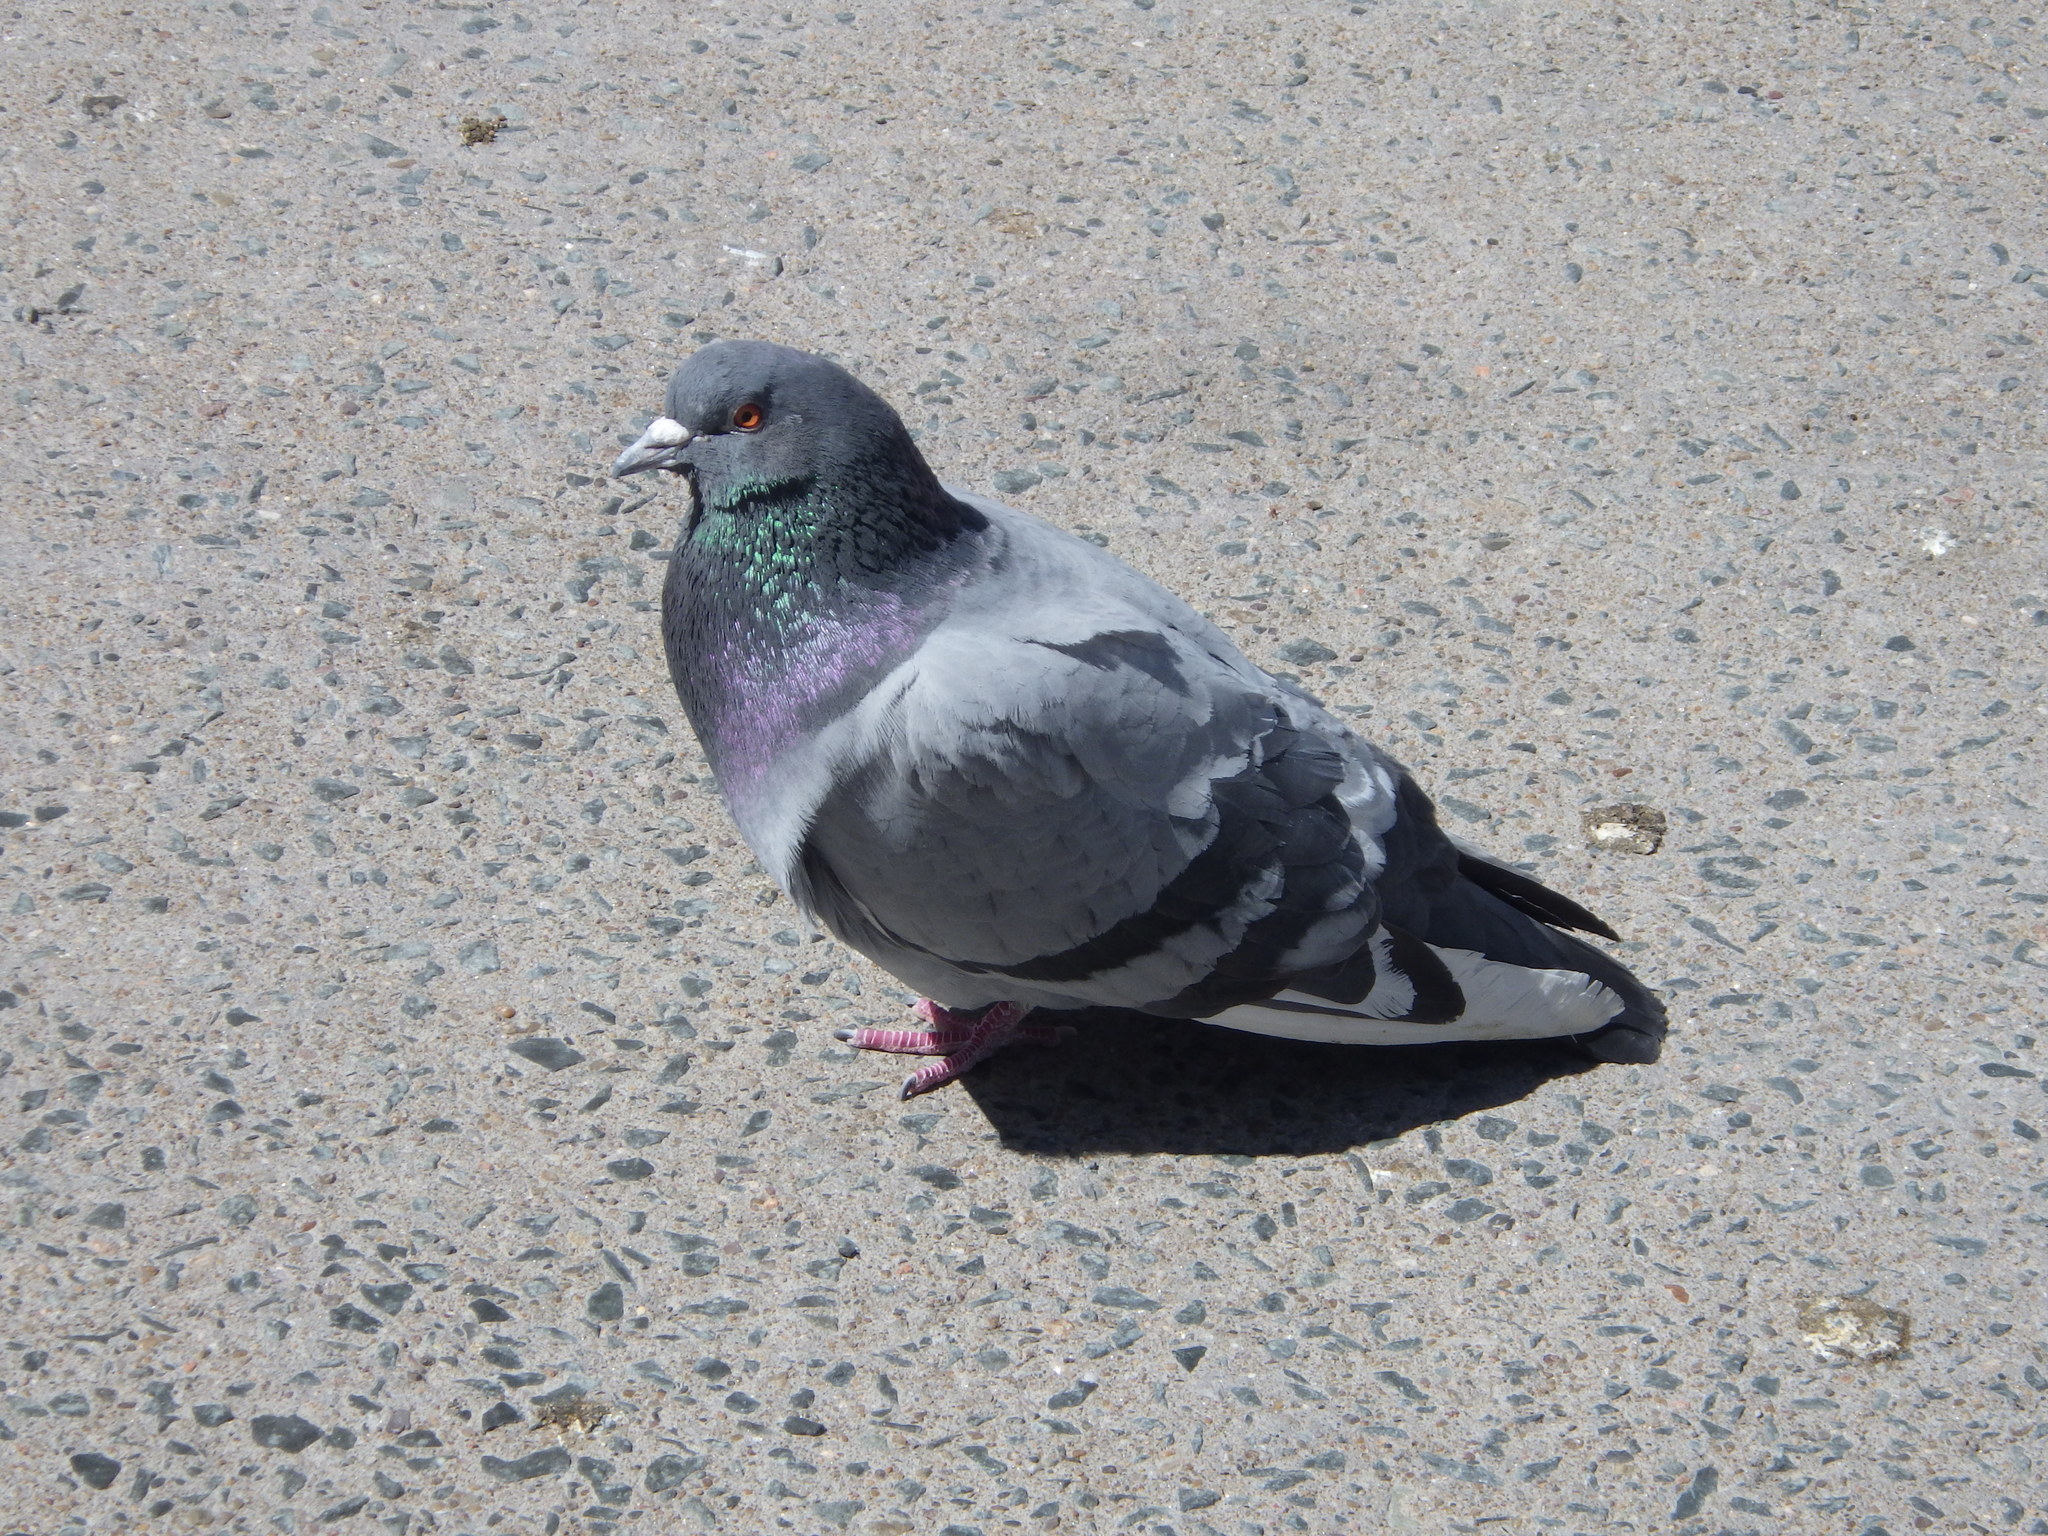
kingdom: Animalia
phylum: Chordata
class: Aves
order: Columbiformes
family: Columbidae
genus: Columba
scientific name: Columba livia
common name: Rock pigeon
